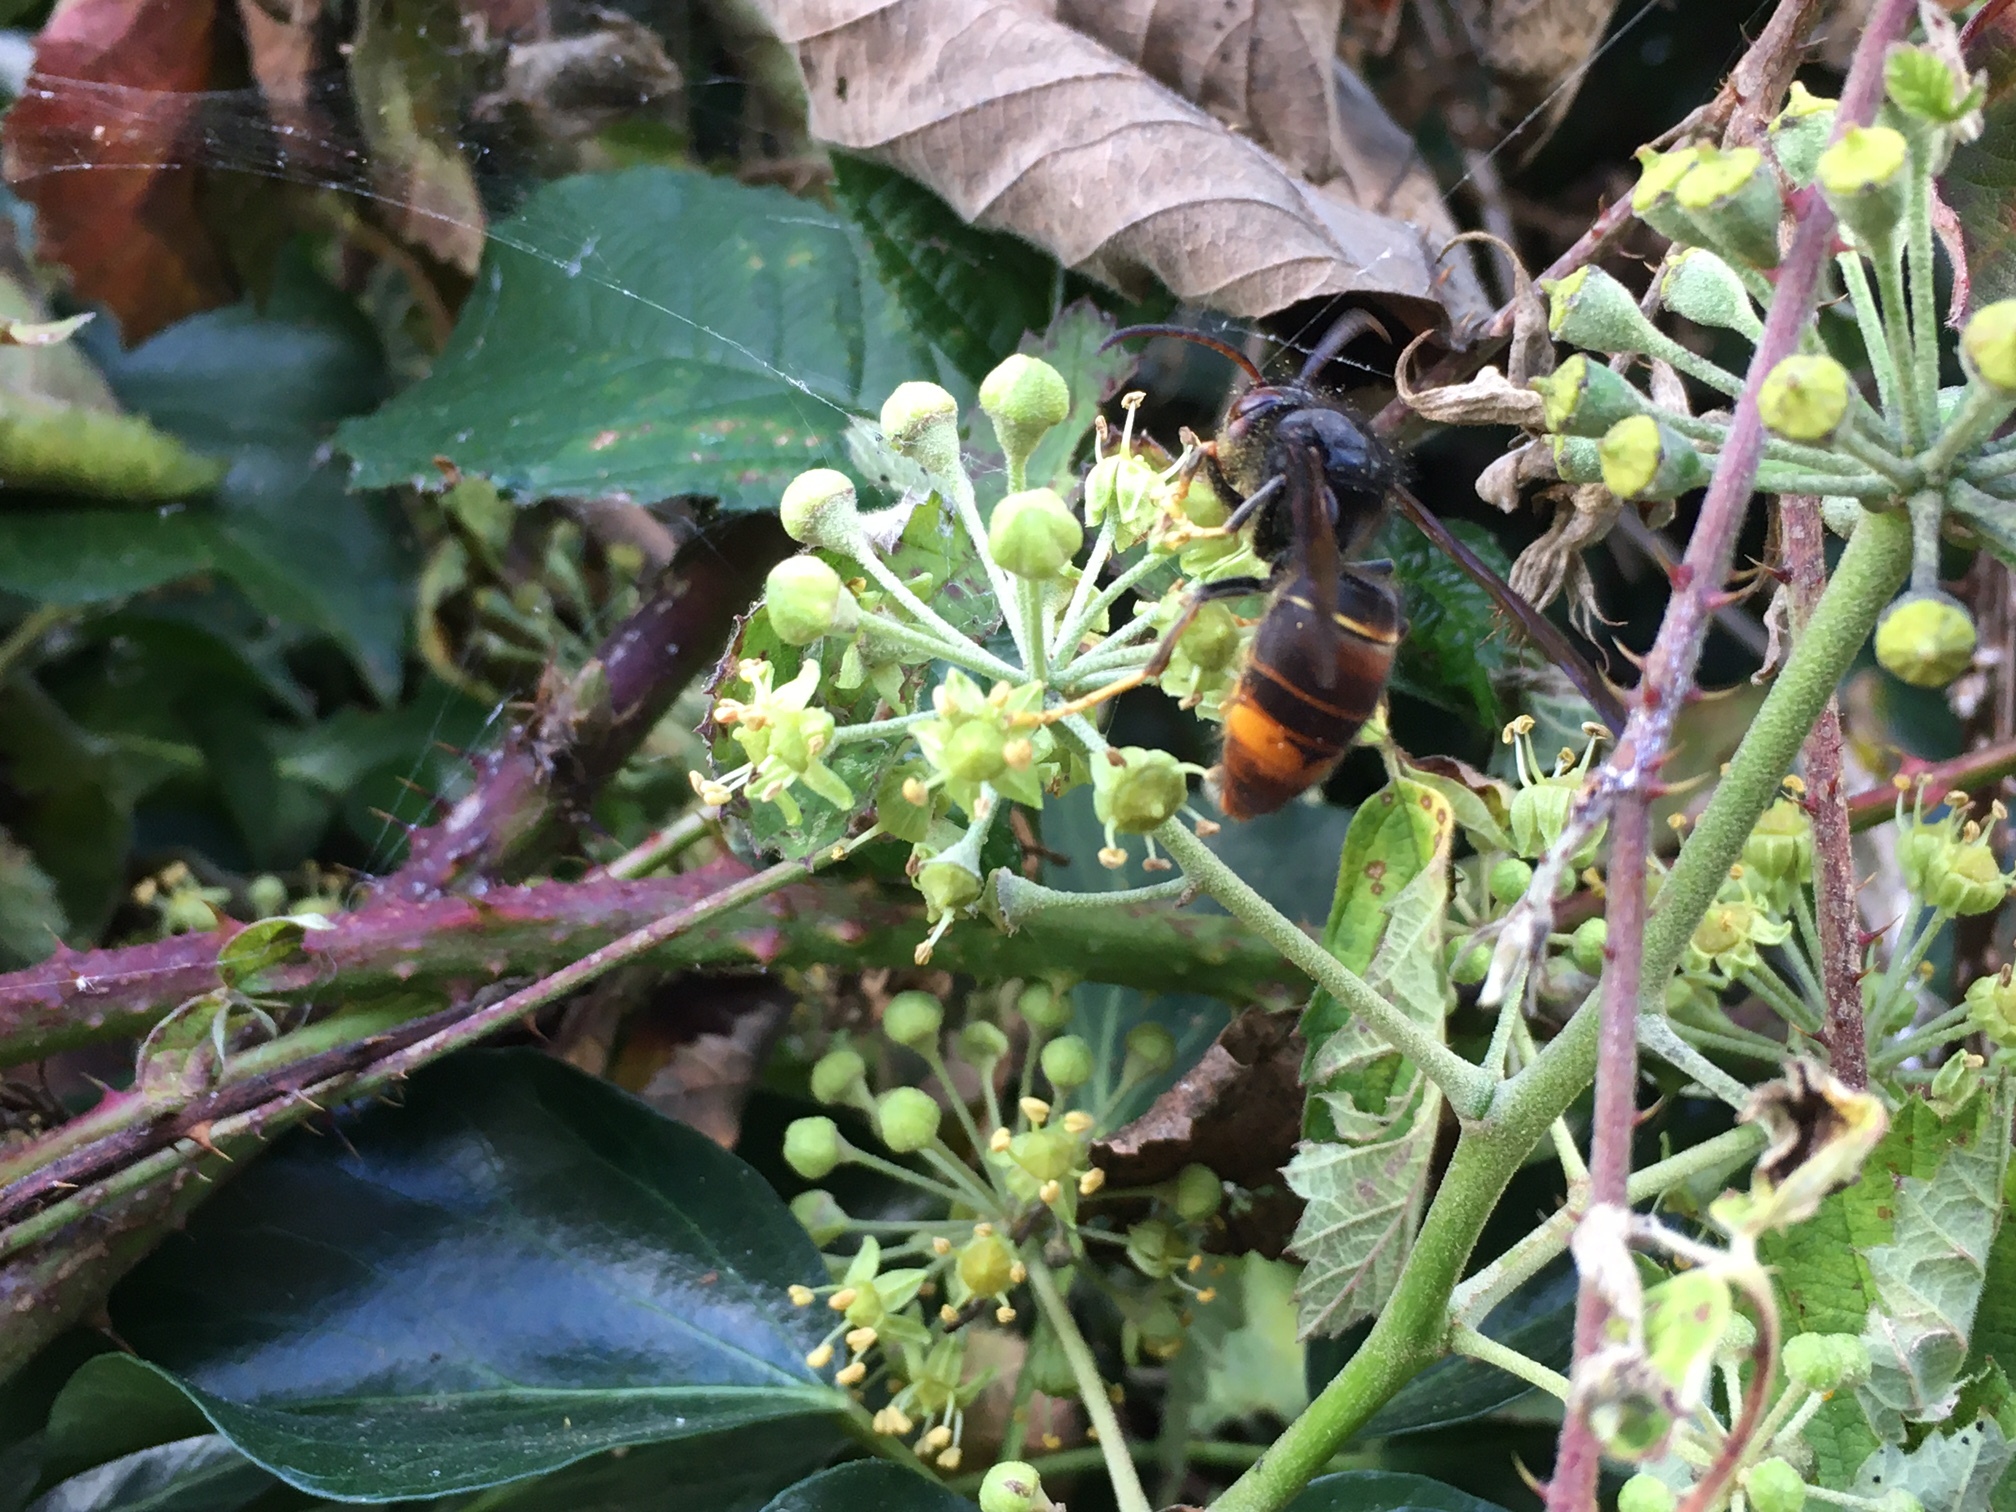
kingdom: Animalia
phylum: Arthropoda
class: Insecta
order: Hymenoptera
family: Vespidae
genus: Vespa
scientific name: Vespa velutina
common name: Asian hornet
